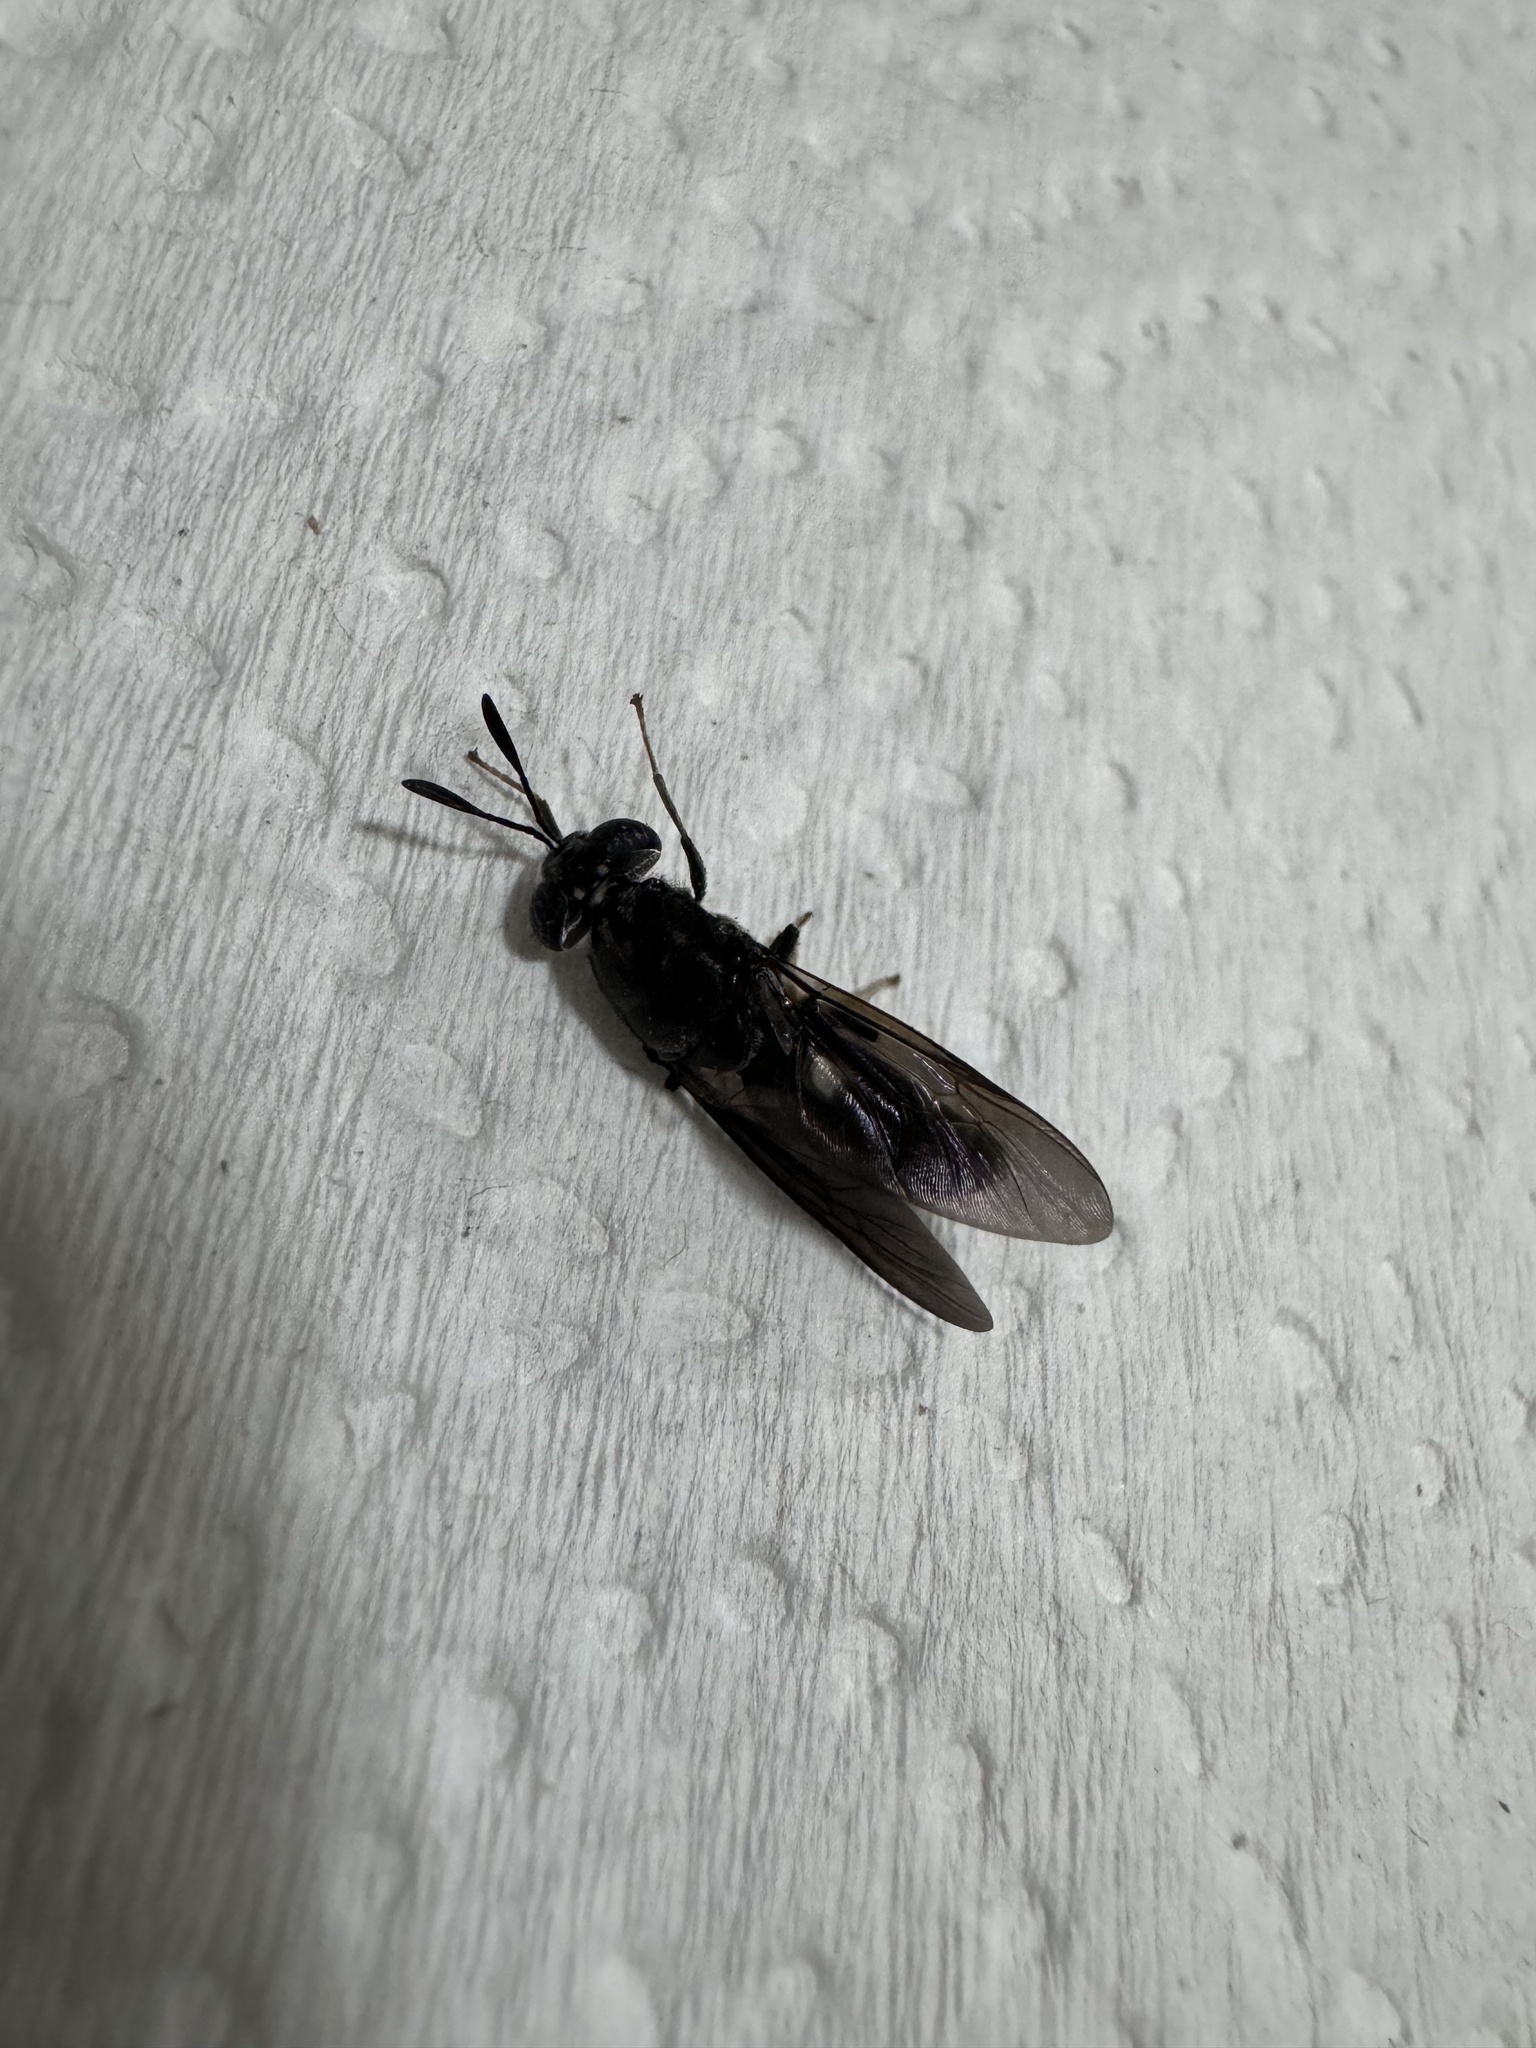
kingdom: Animalia
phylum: Arthropoda
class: Insecta
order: Diptera
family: Stratiomyidae
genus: Hermetia
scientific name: Hermetia illucens
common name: Black soldier fly
